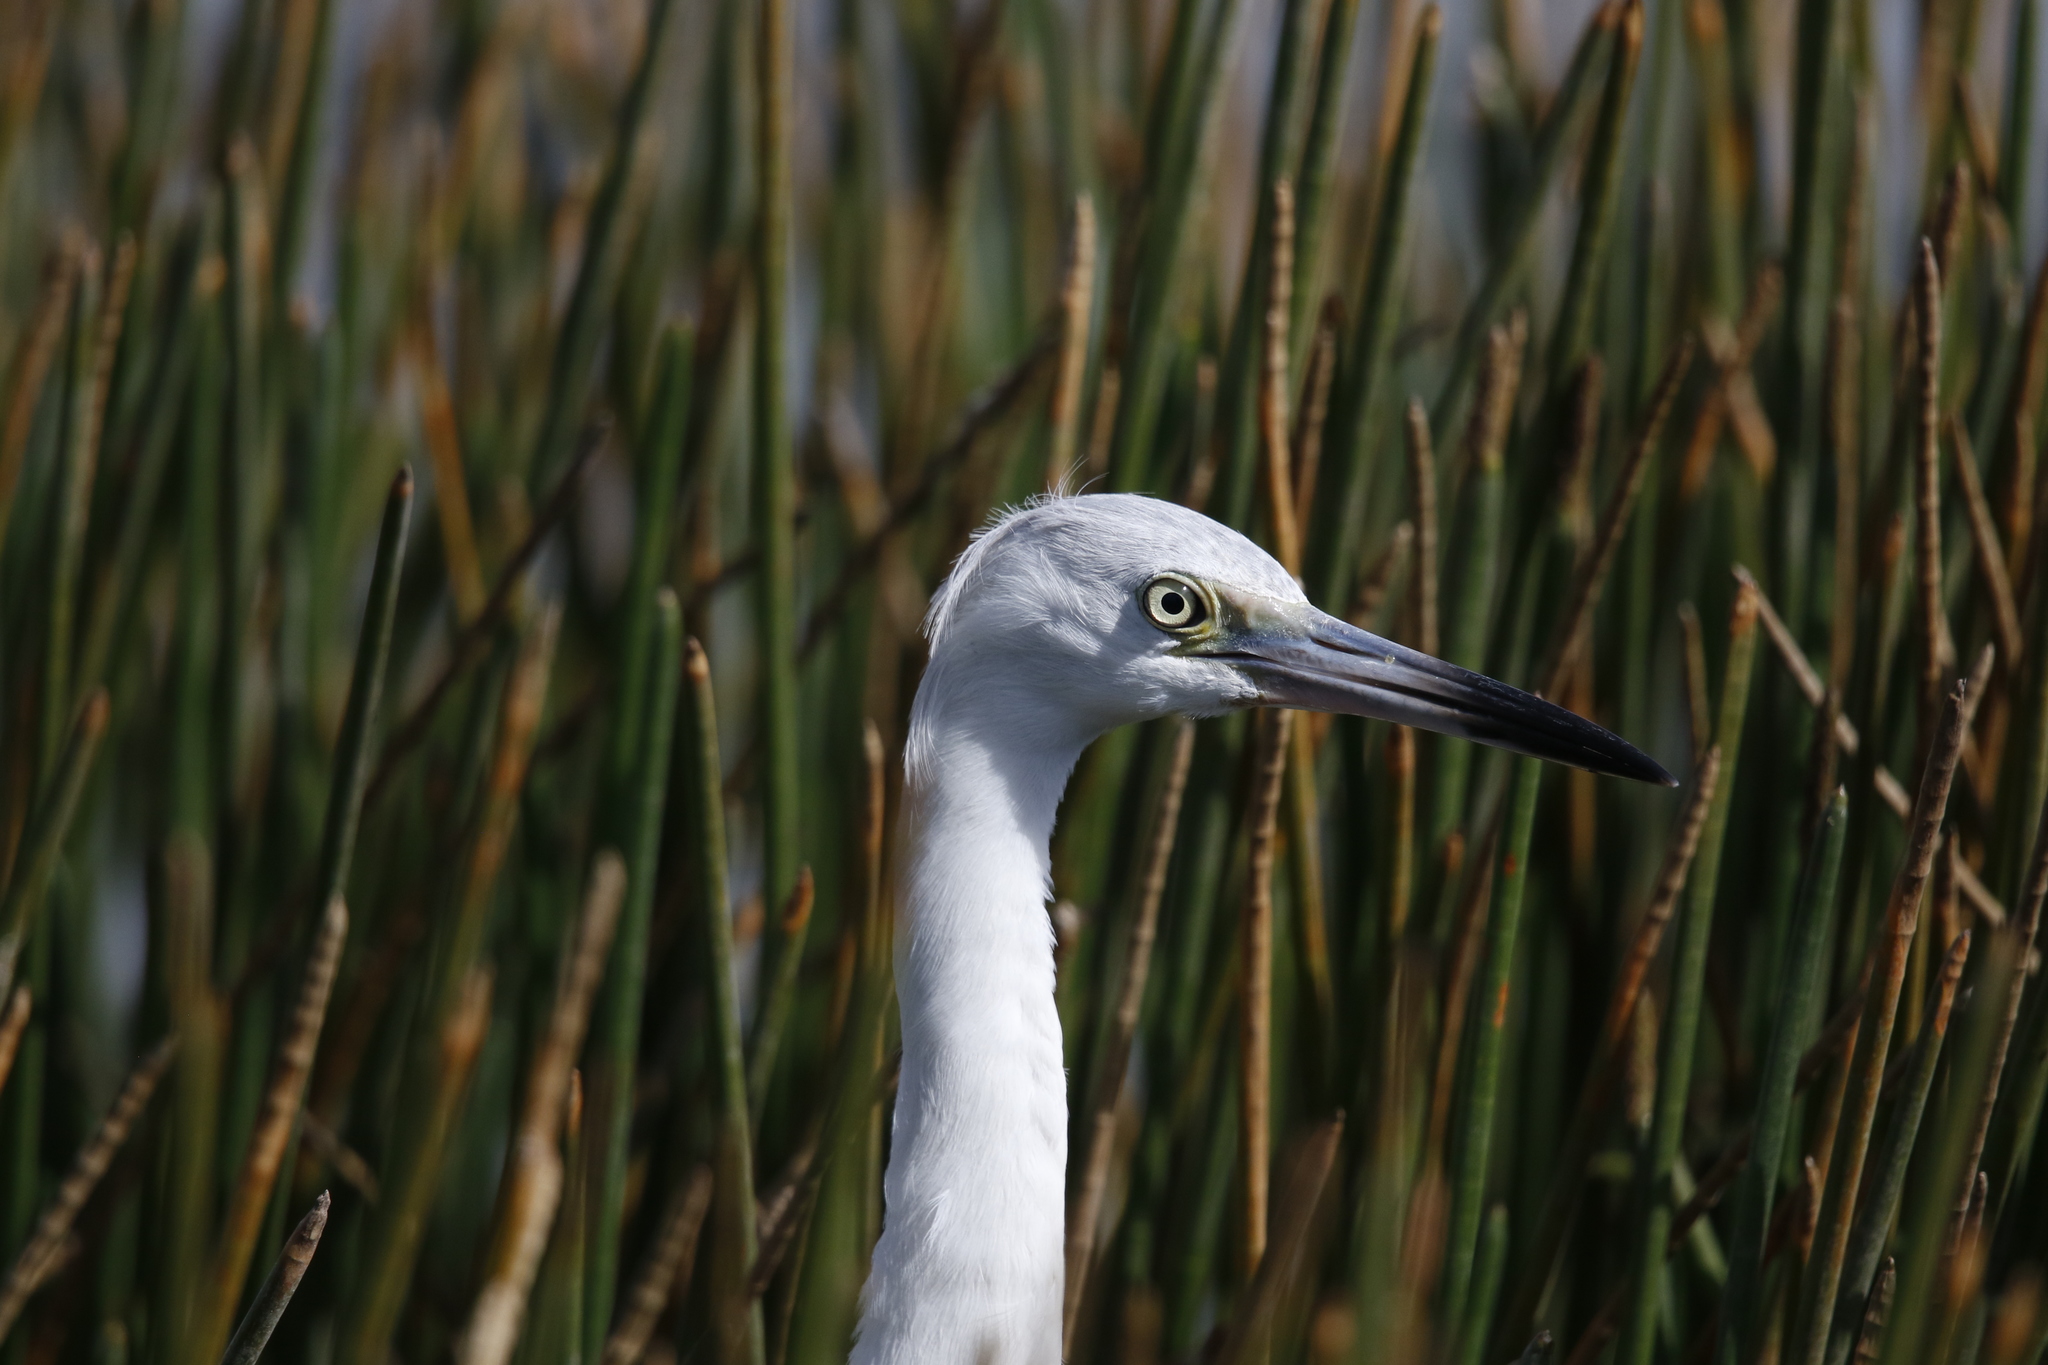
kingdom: Animalia
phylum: Chordata
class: Aves
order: Pelecaniformes
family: Ardeidae
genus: Egretta
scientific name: Egretta caerulea
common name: Little blue heron
